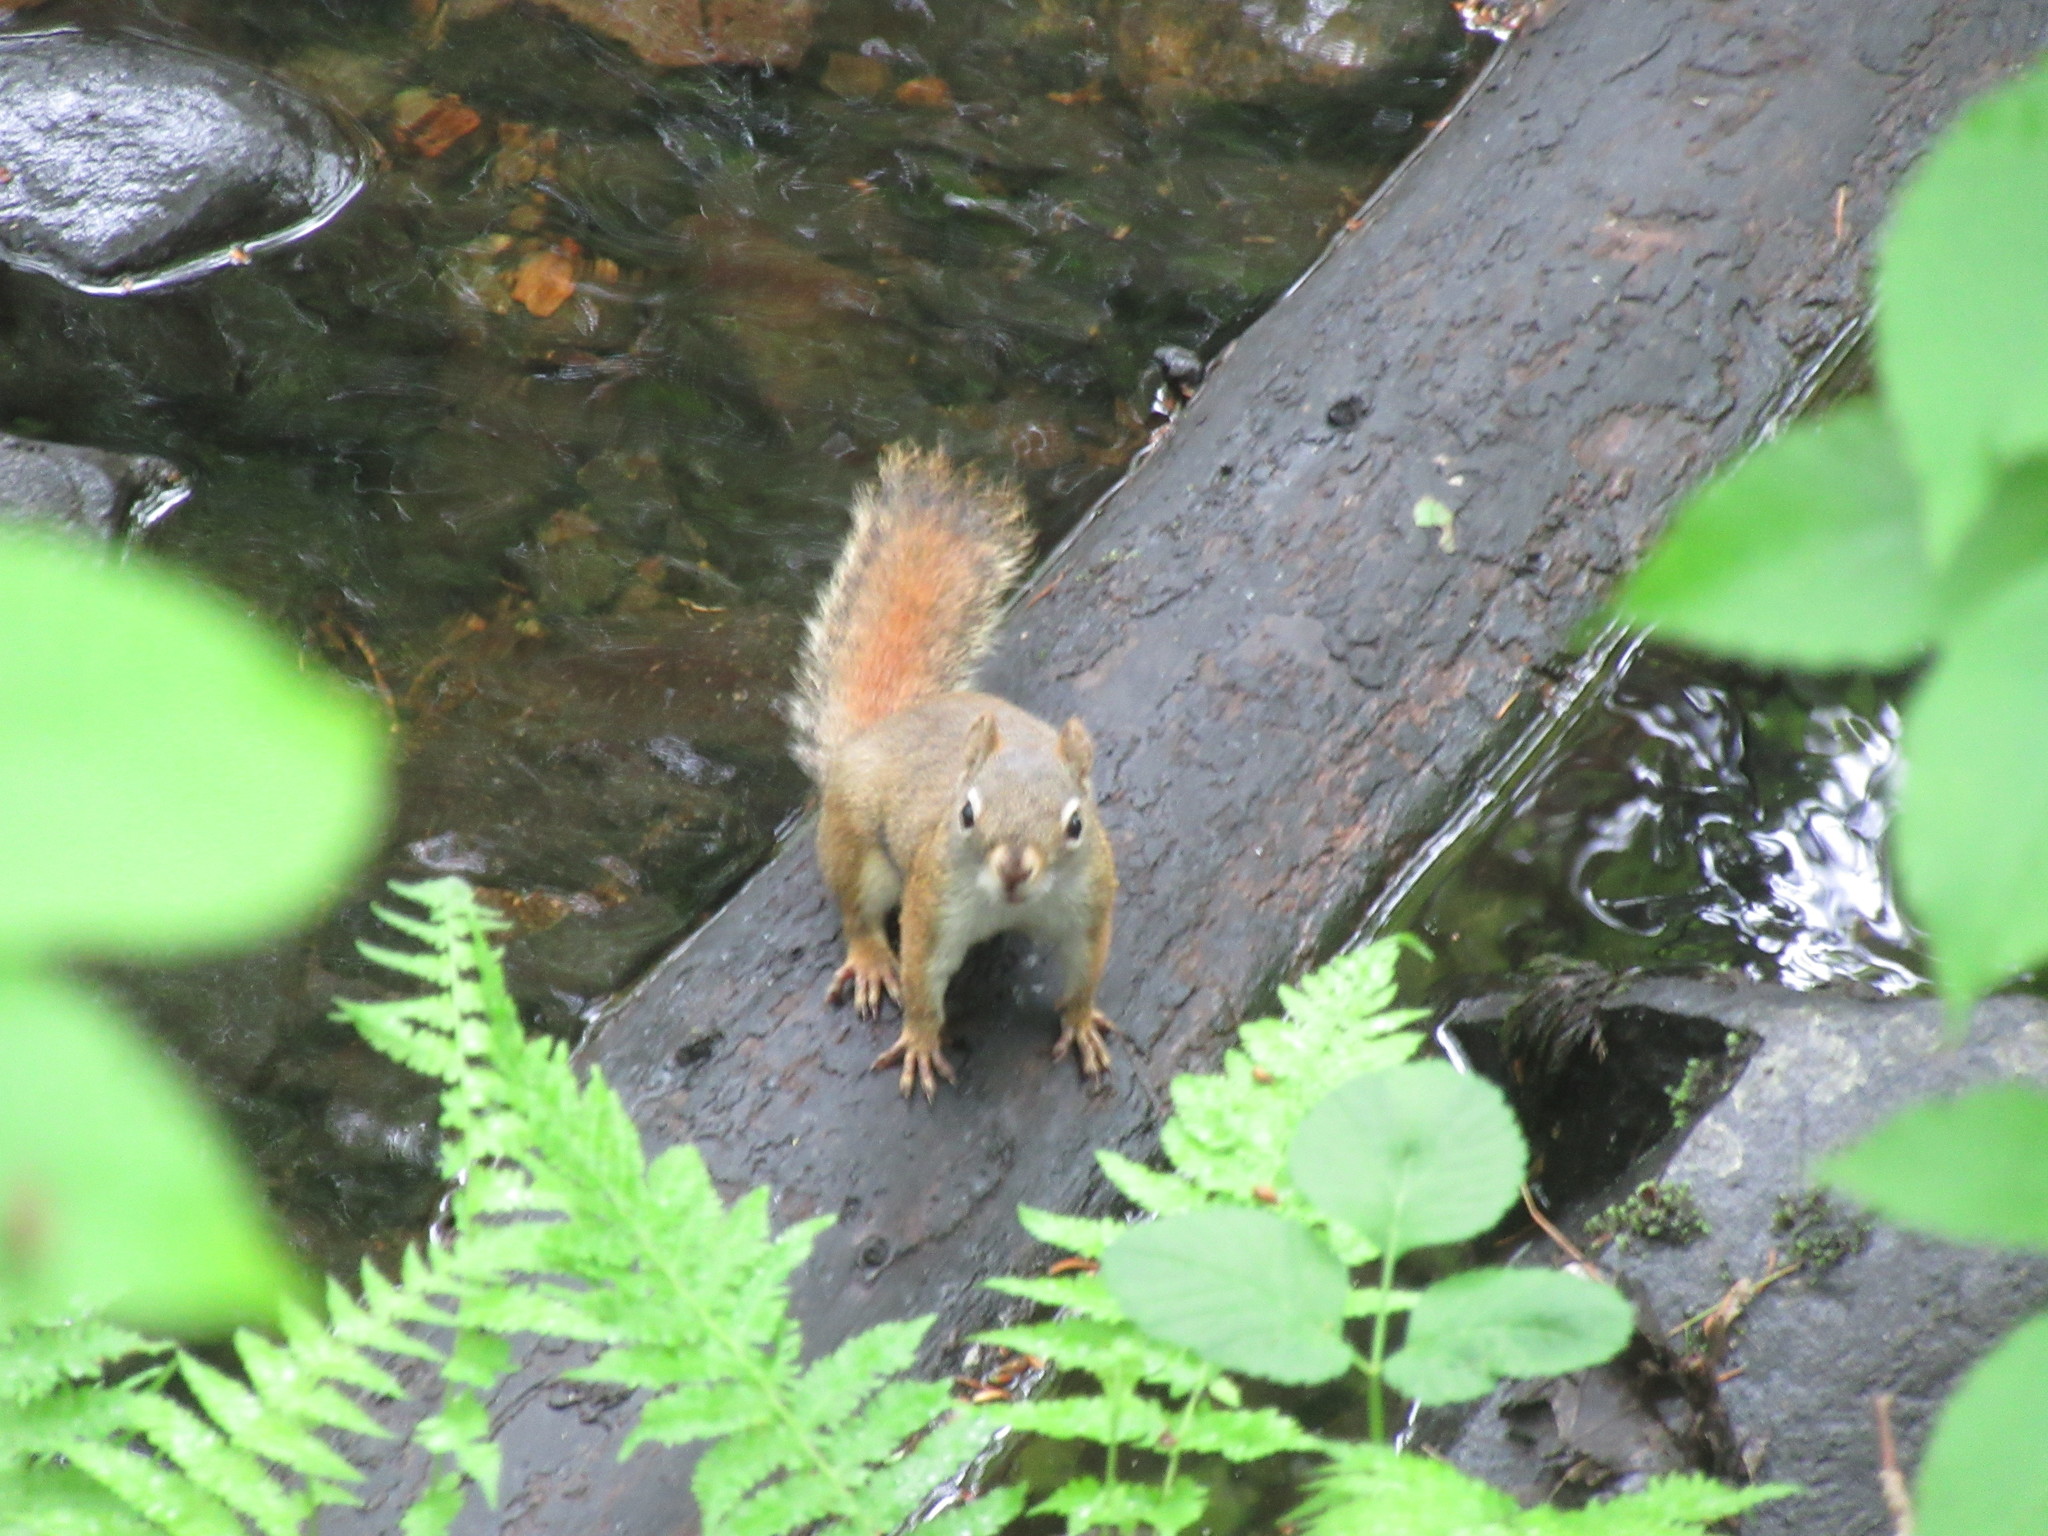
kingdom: Animalia
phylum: Chordata
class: Mammalia
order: Rodentia
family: Sciuridae
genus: Tamiasciurus
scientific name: Tamiasciurus hudsonicus
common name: Red squirrel
